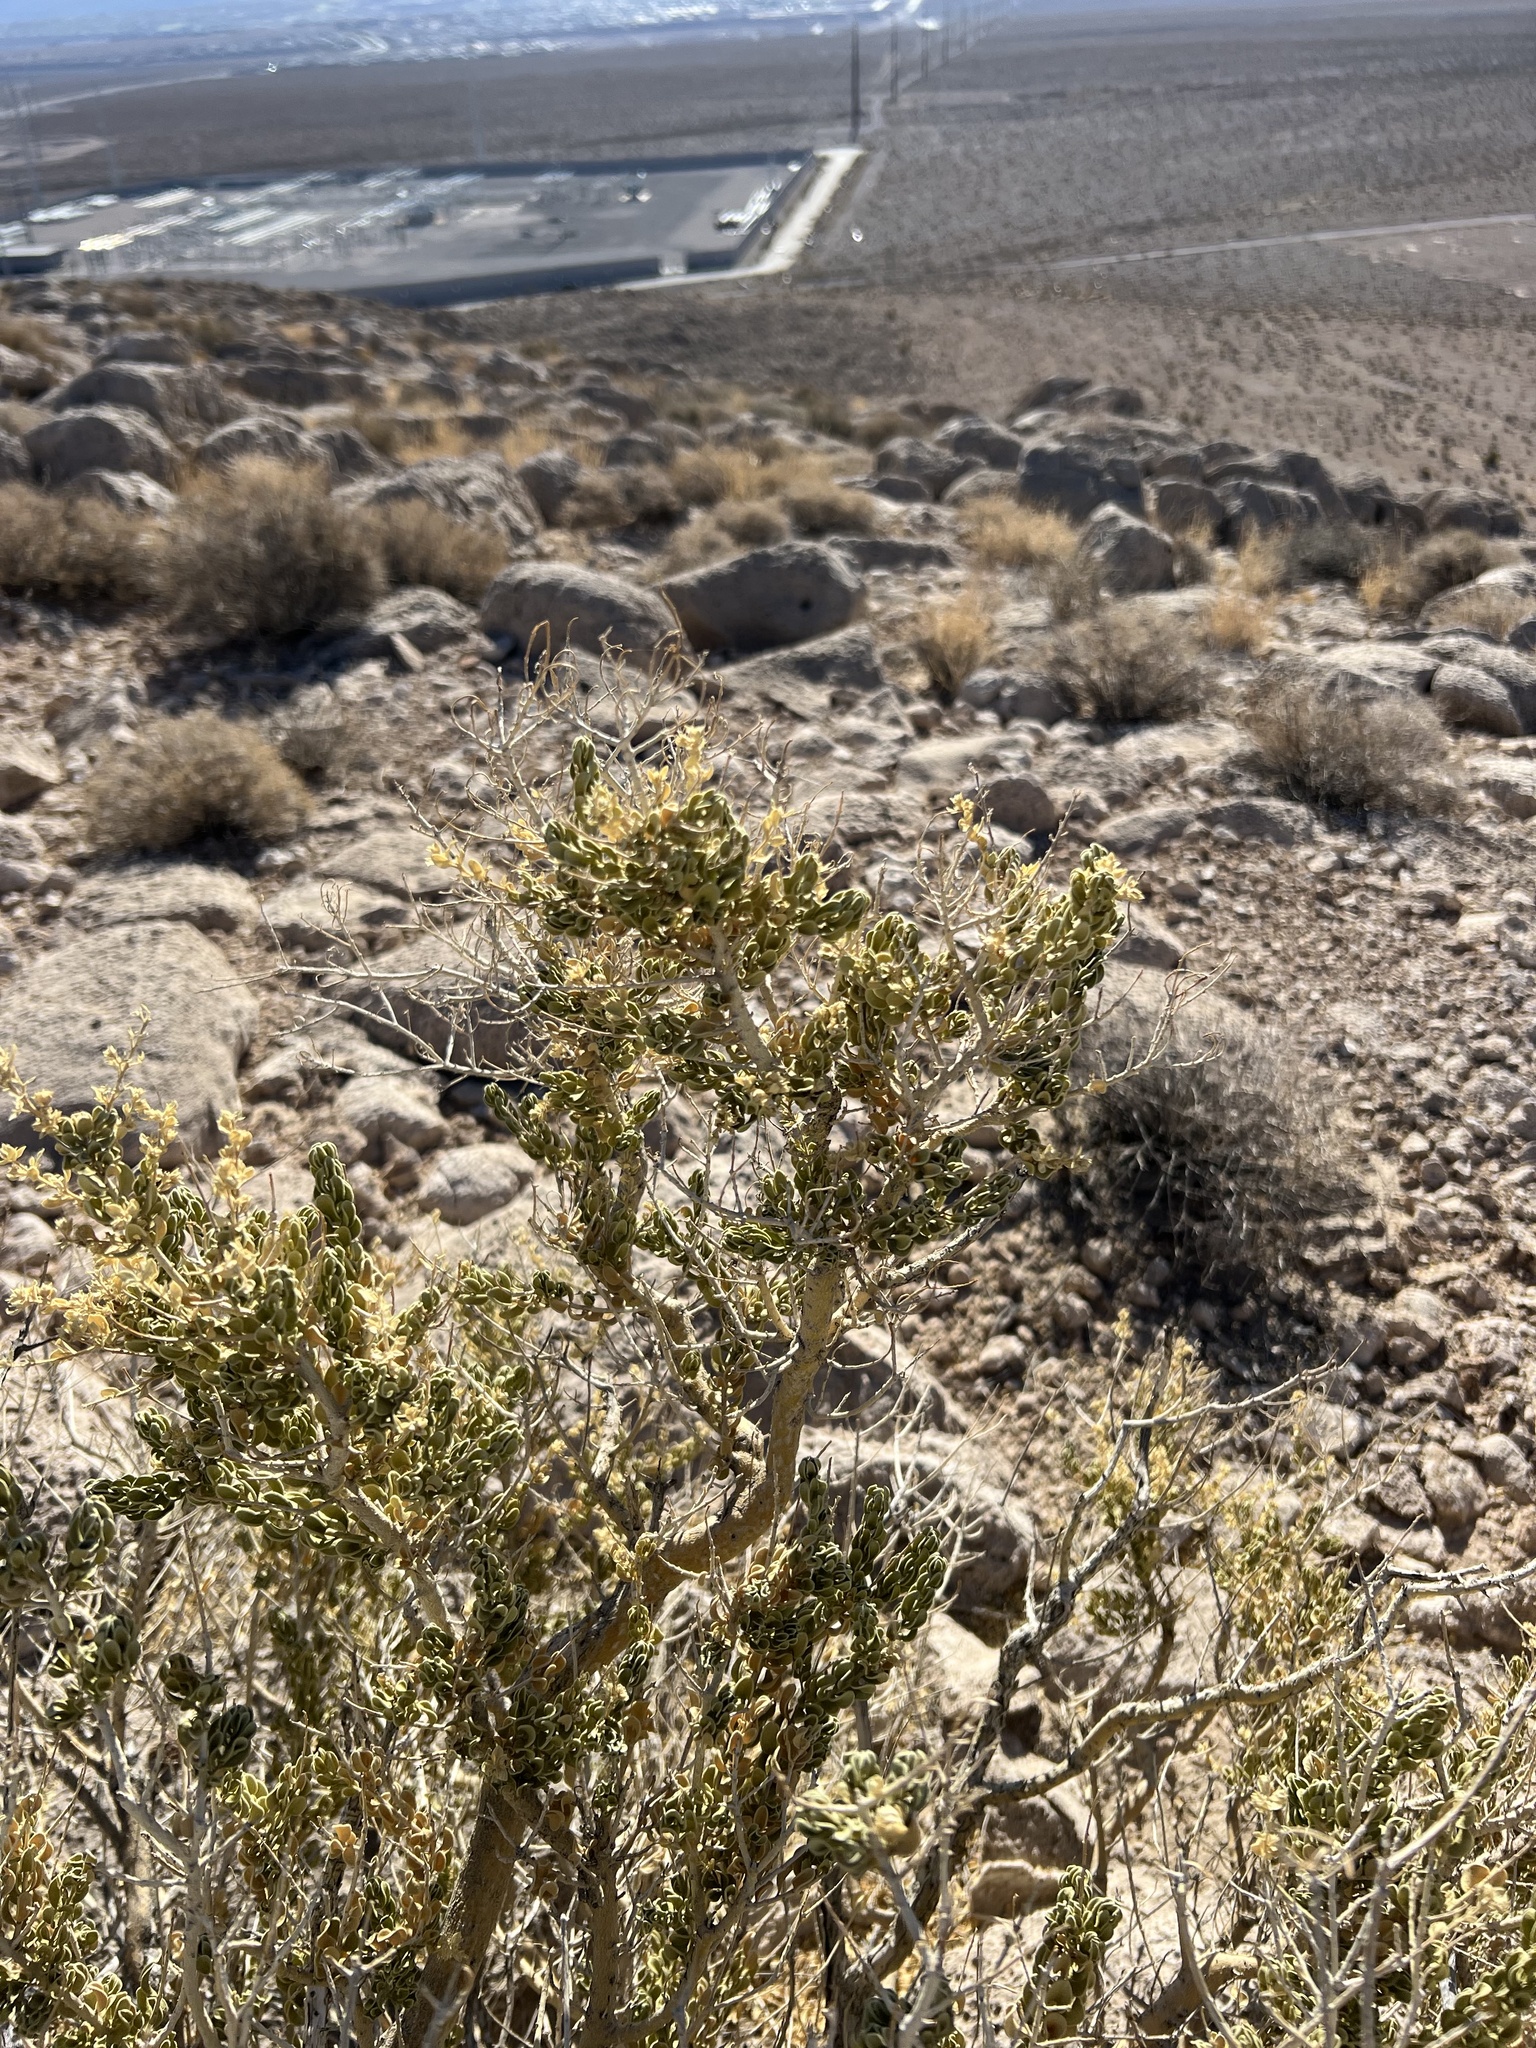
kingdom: Plantae
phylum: Tracheophyta
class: Magnoliopsida
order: Celastrales
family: Celastraceae
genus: Mortonia
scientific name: Mortonia utahensis
